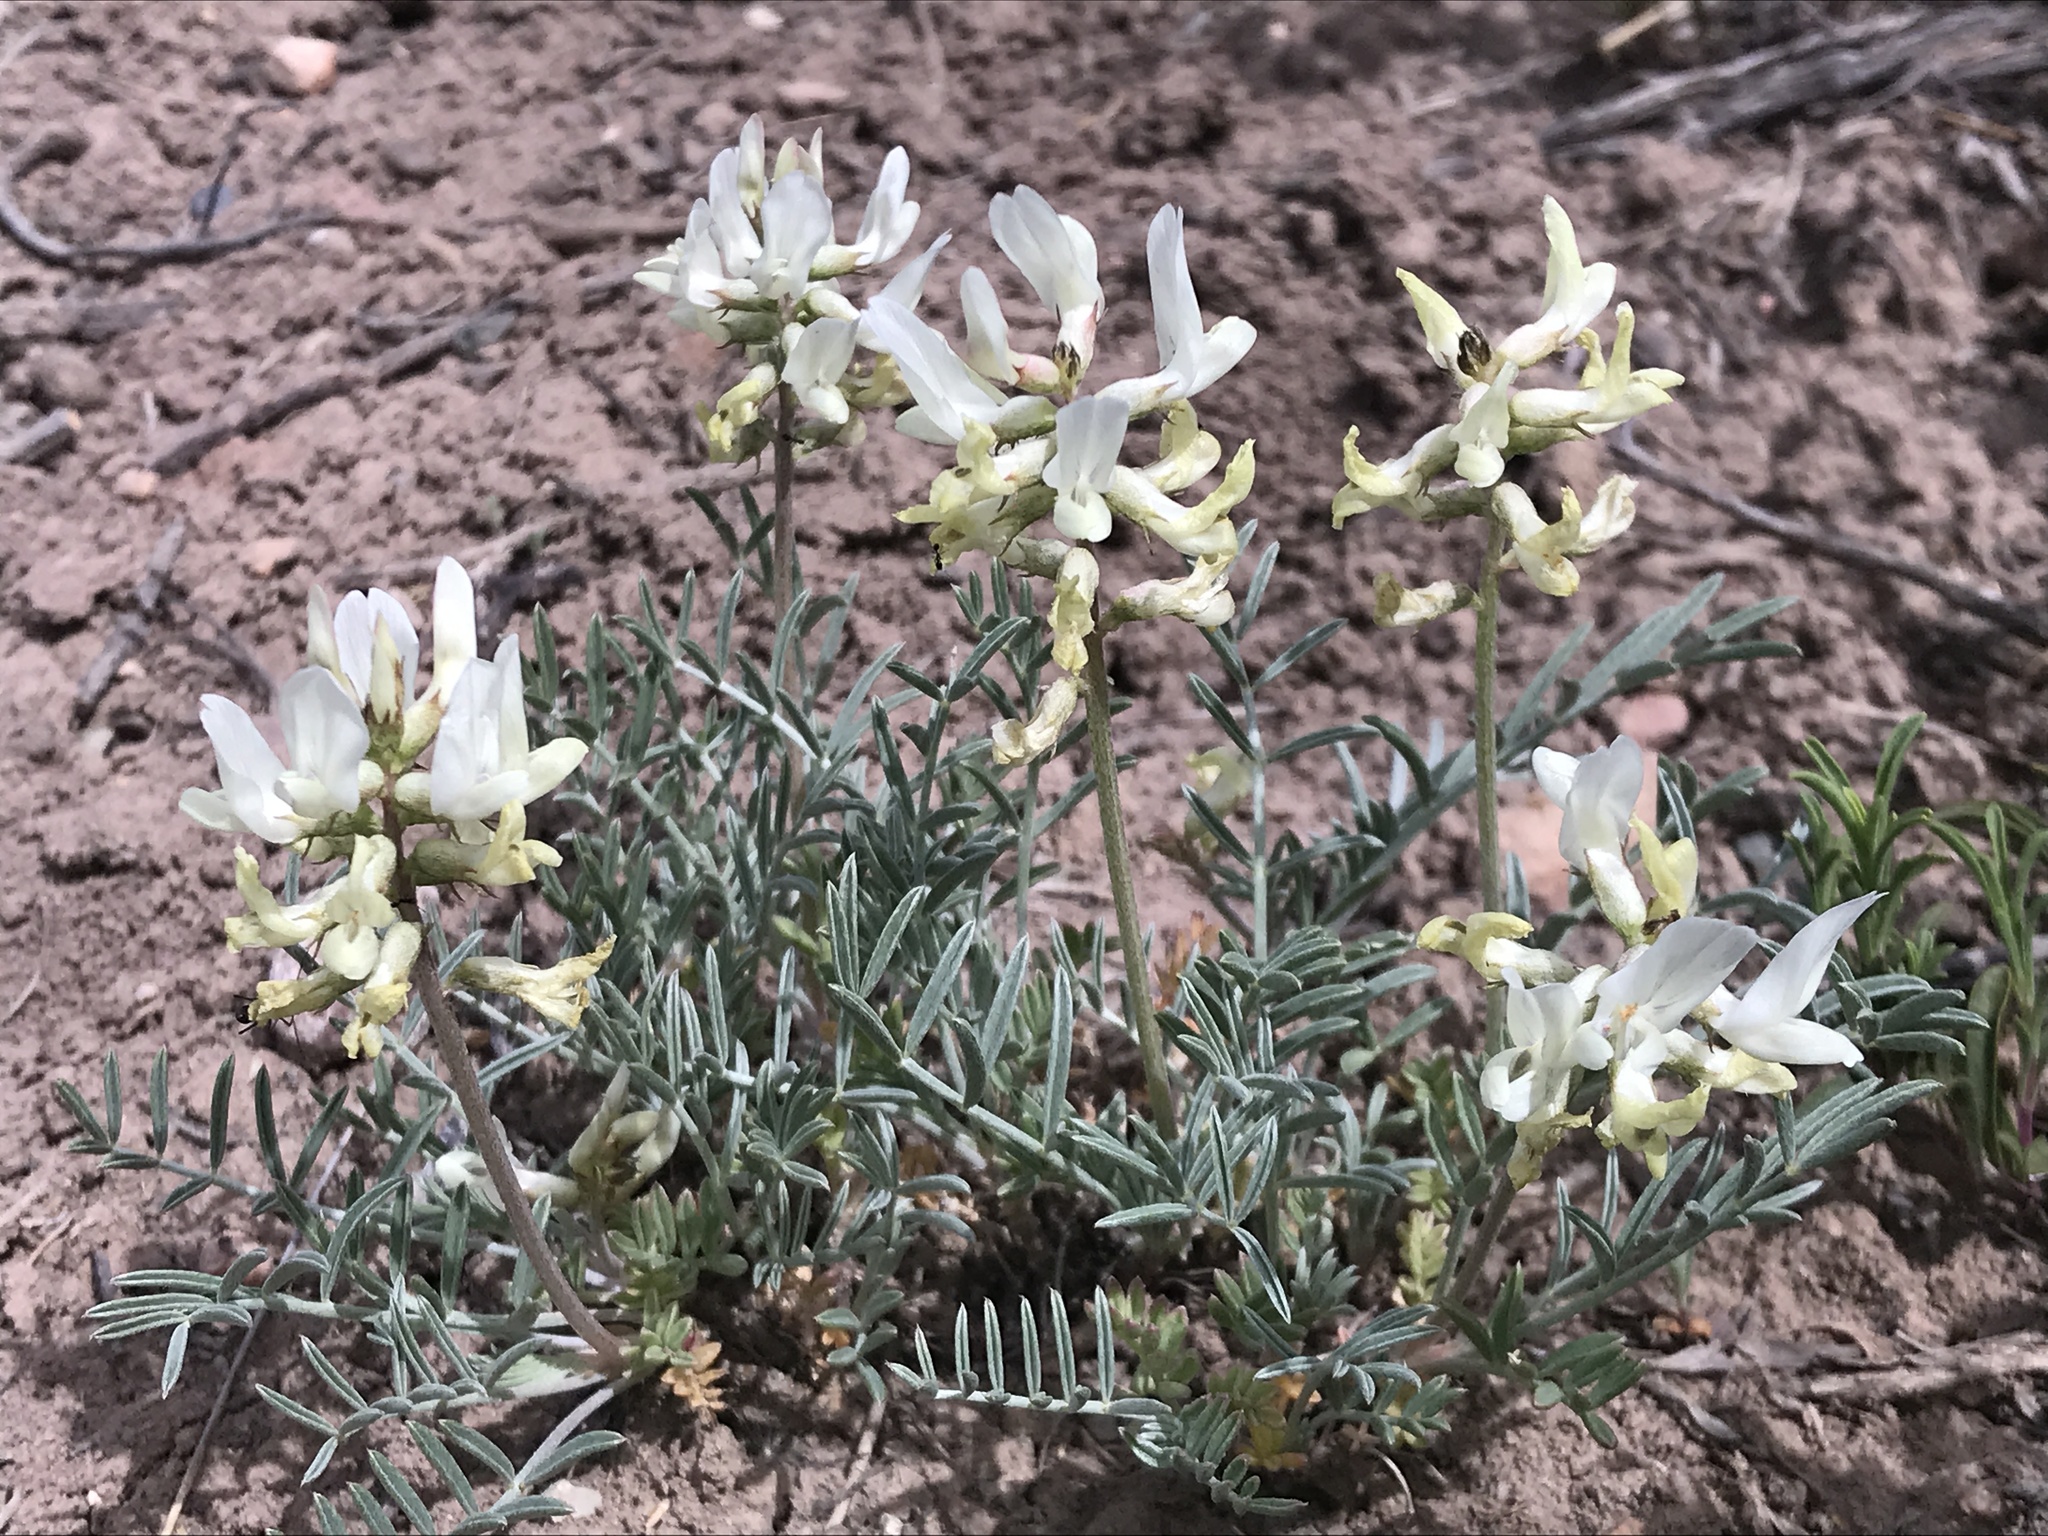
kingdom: Plantae
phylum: Tracheophyta
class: Magnoliopsida
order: Fabales
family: Fabaceae
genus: Astragalus
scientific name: Astragalus flavus
